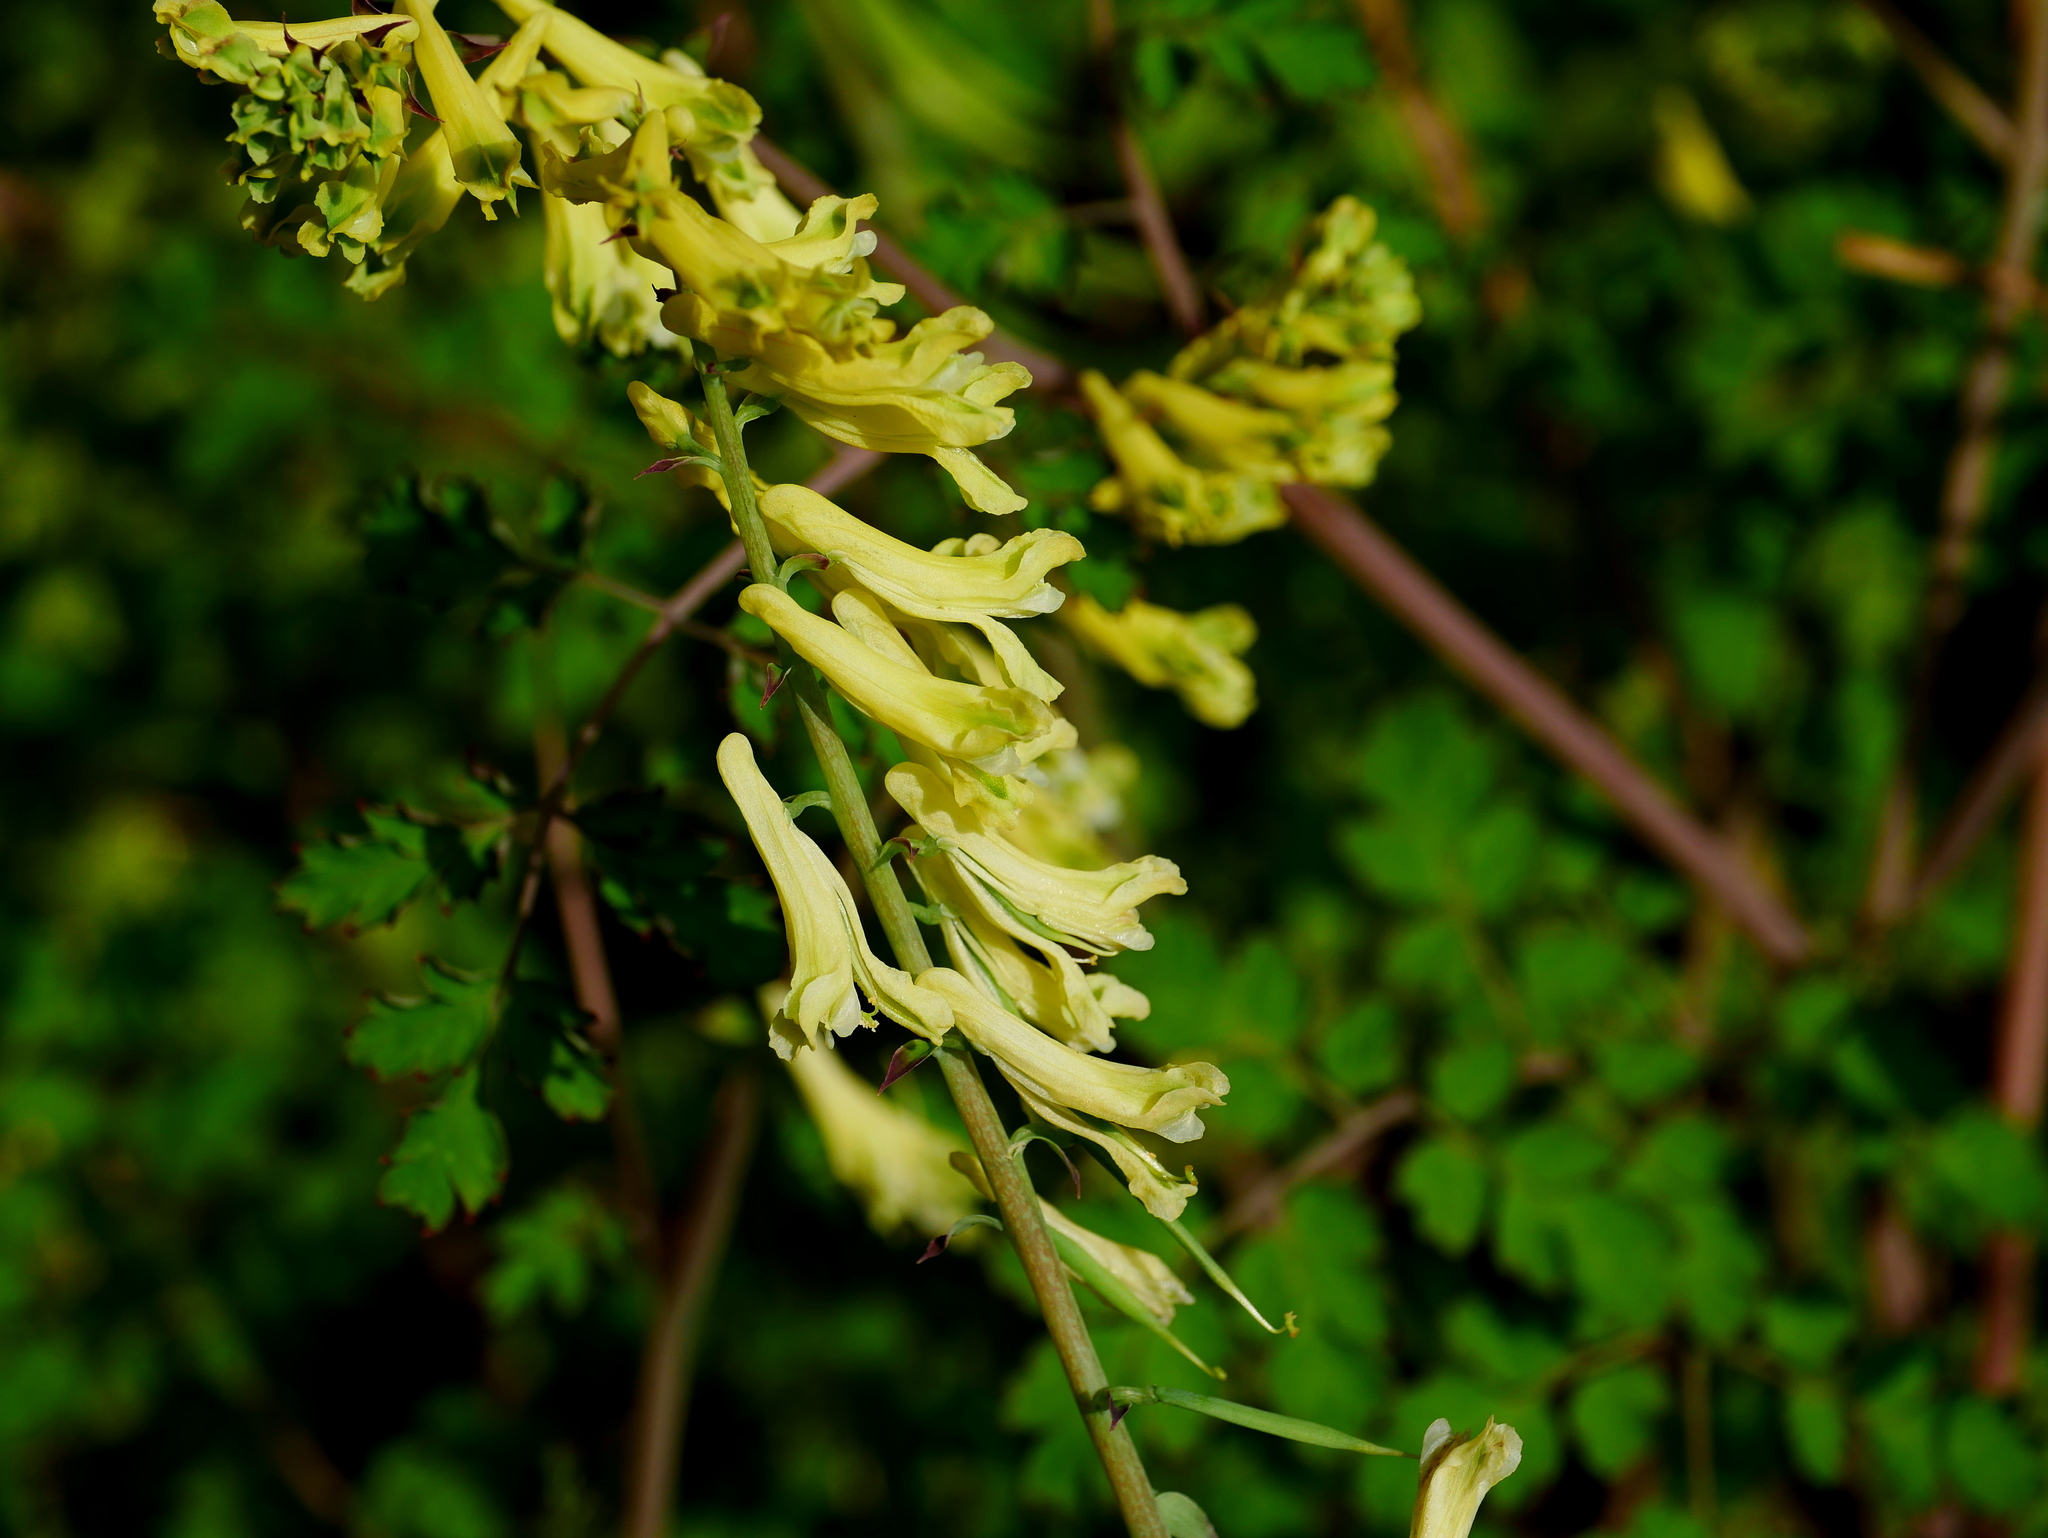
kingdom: Plantae
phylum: Tracheophyta
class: Magnoliopsida
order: Ranunculales
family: Papaveraceae
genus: Corydalis
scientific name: Corydalis balansae
